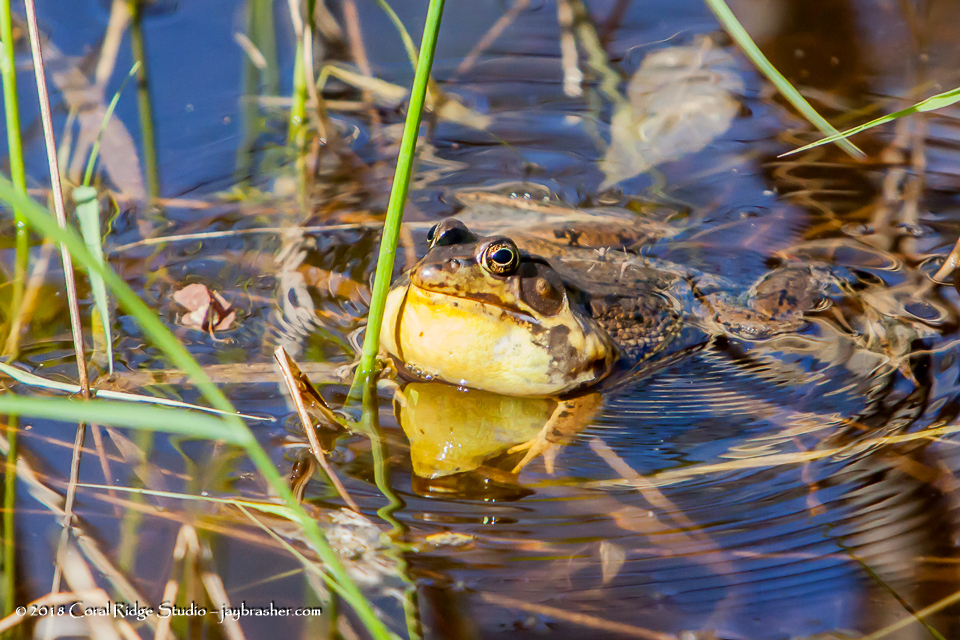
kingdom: Animalia
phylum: Chordata
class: Amphibia
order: Anura
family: Ranidae
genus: Lithobates
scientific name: Lithobates clamitans
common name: Green frog
